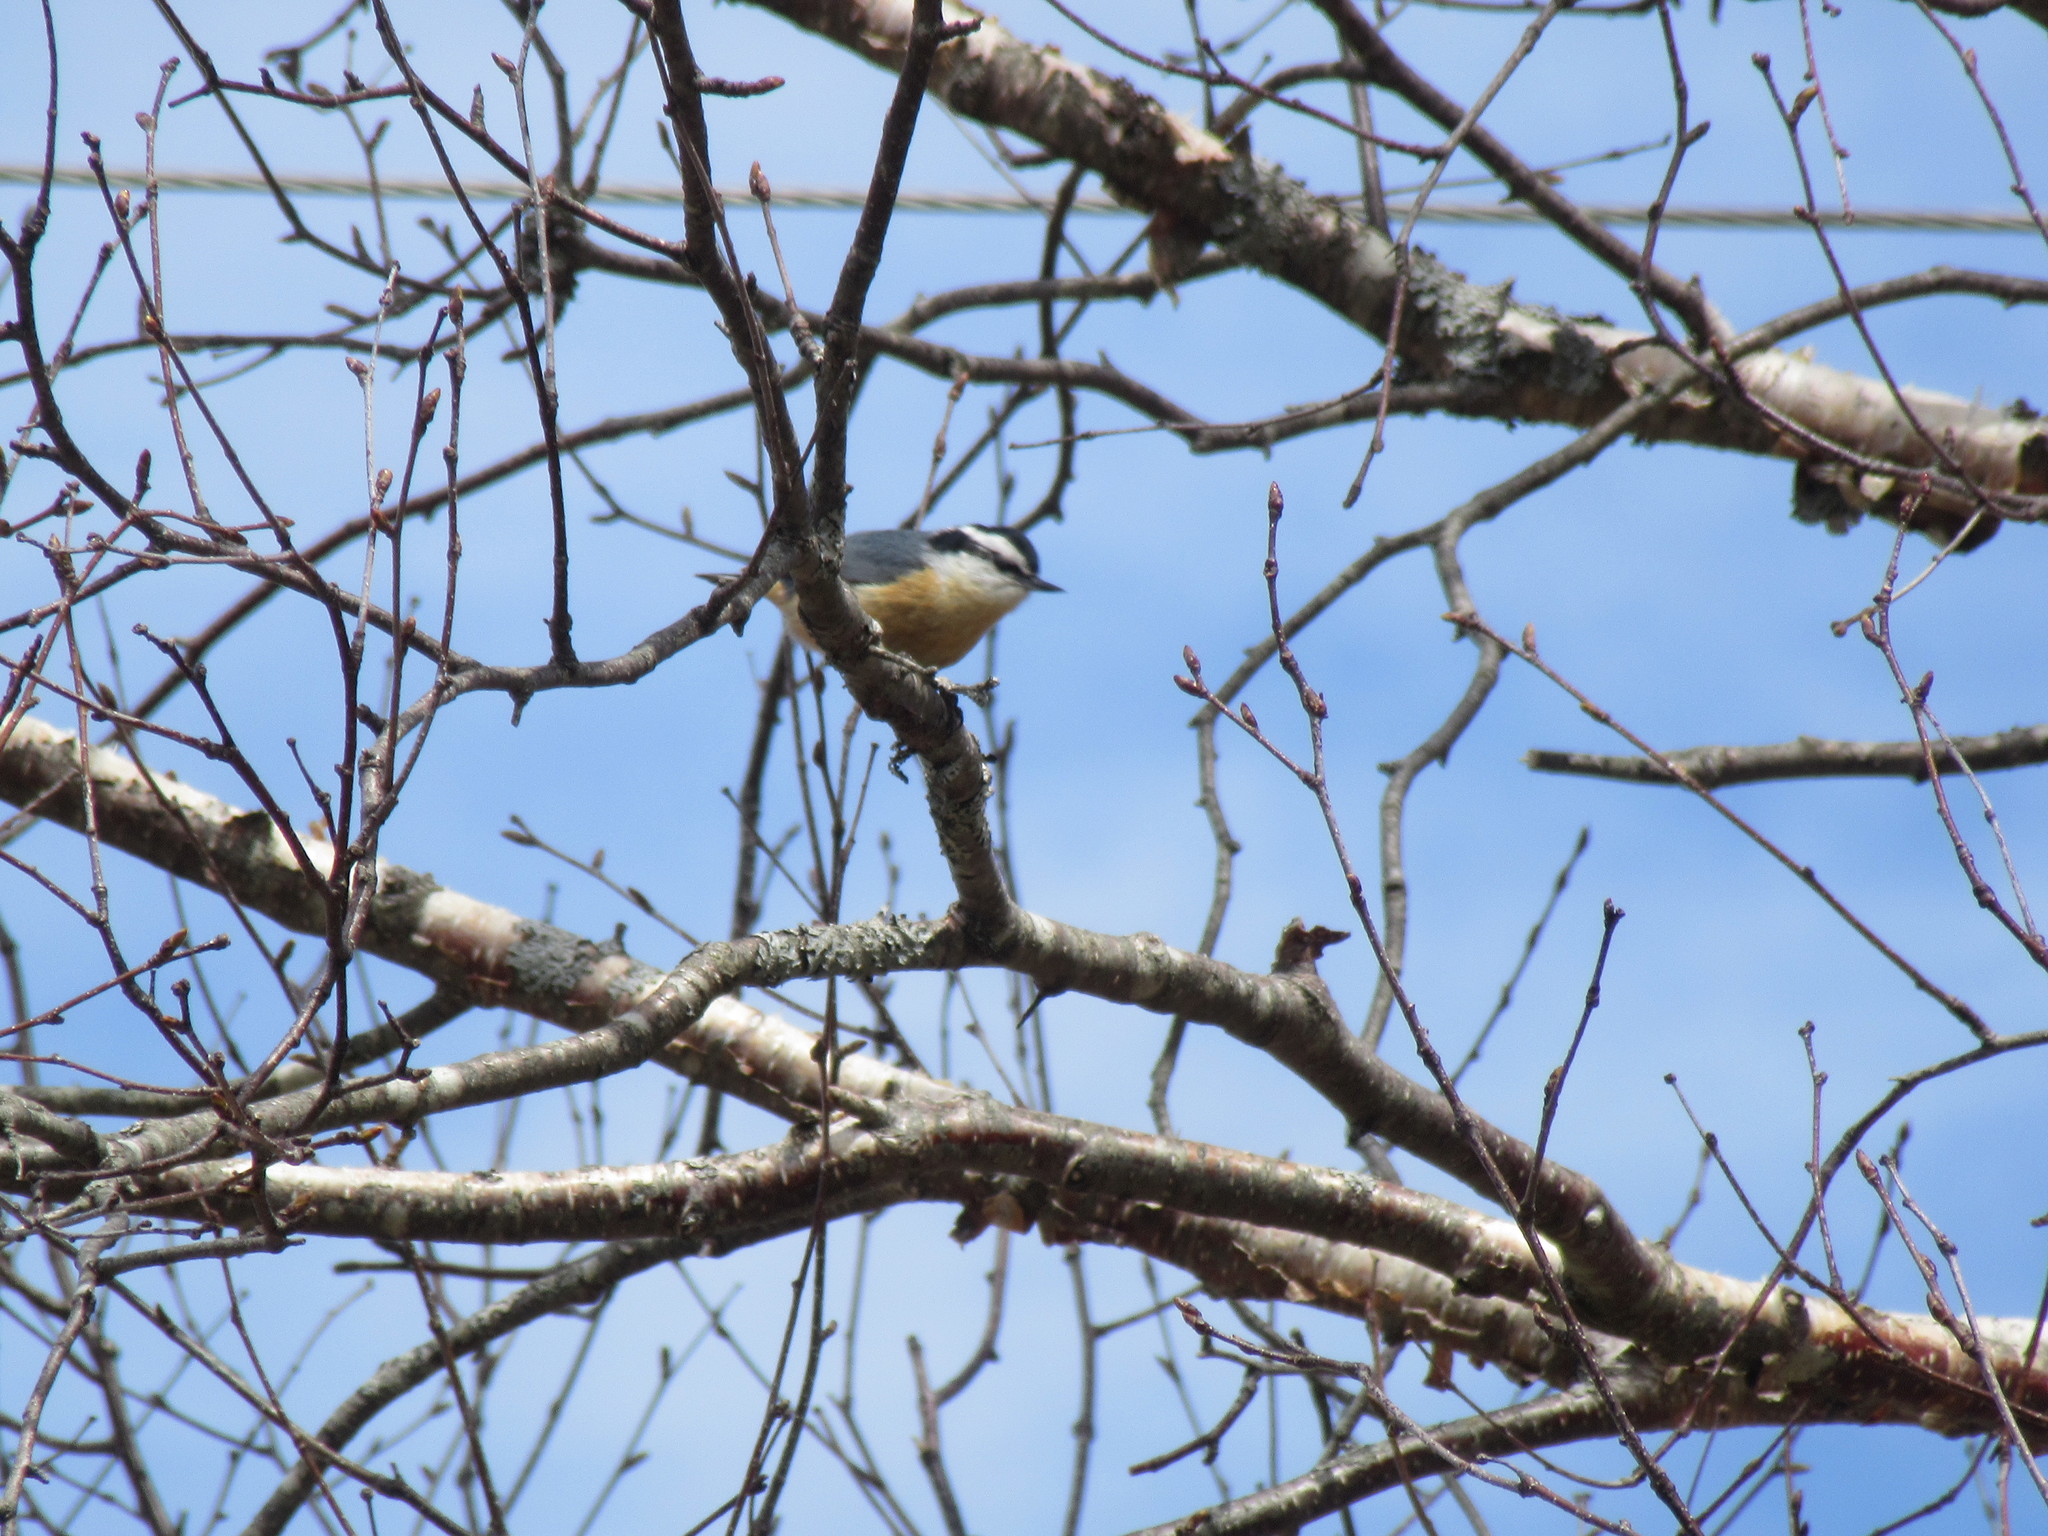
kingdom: Animalia
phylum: Chordata
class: Aves
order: Passeriformes
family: Sittidae
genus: Sitta
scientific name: Sitta canadensis
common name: Red-breasted nuthatch
